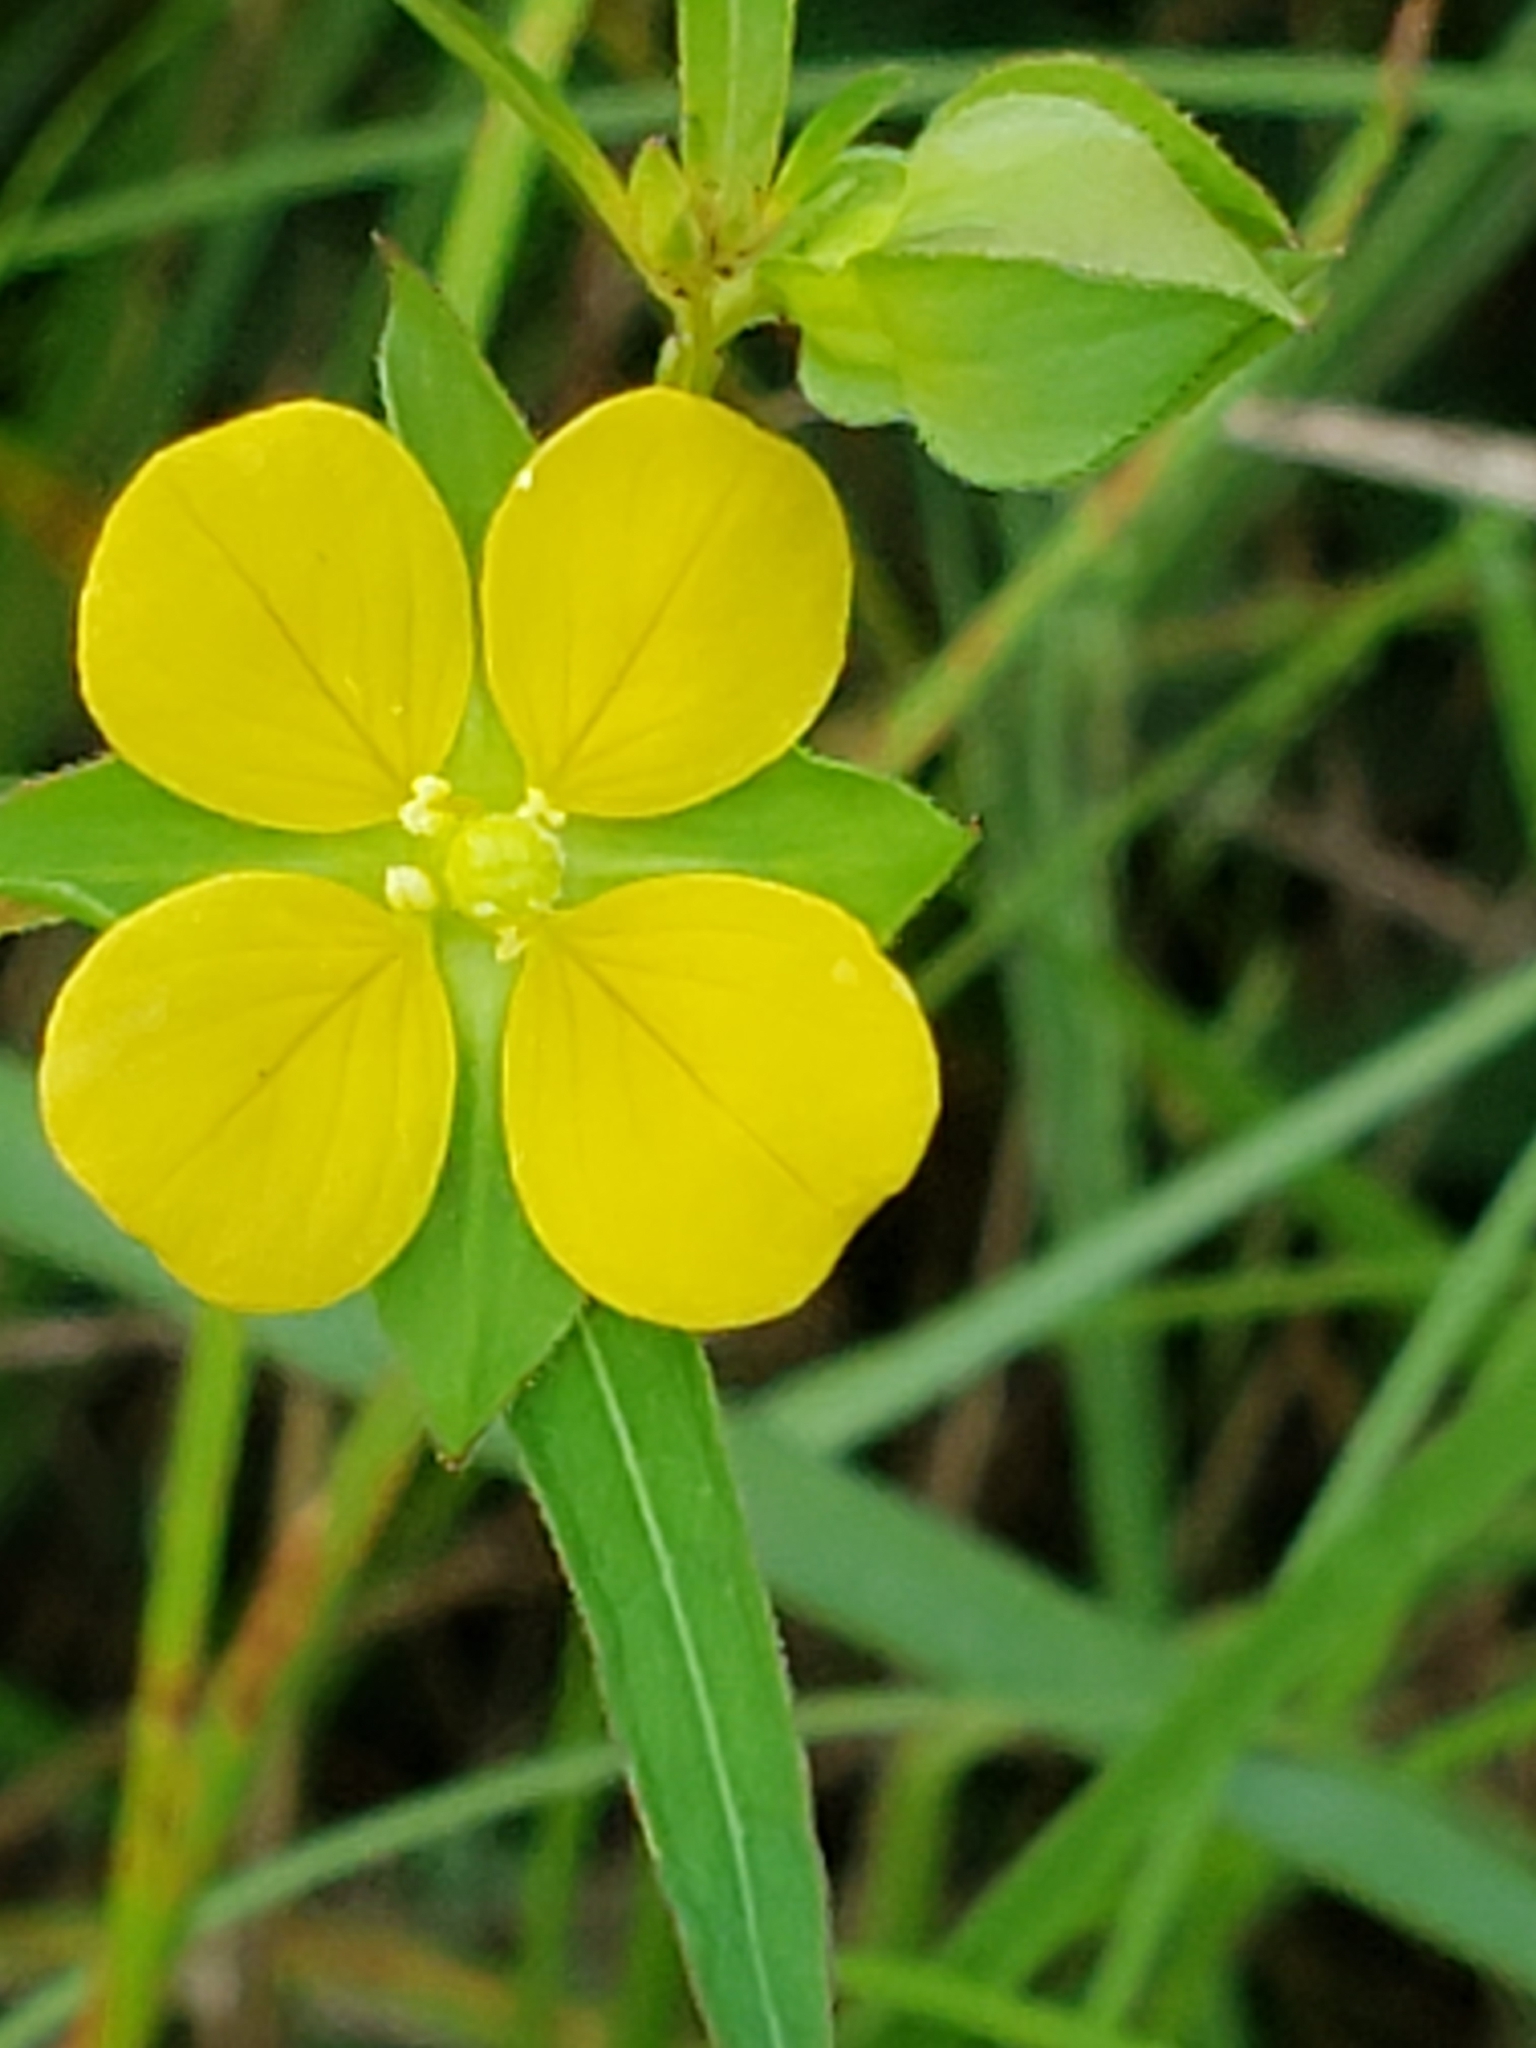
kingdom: Plantae
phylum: Tracheophyta
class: Magnoliopsida
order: Myrtales
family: Onagraceae
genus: Ludwigia
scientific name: Ludwigia alternifolia
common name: Rattlebox
